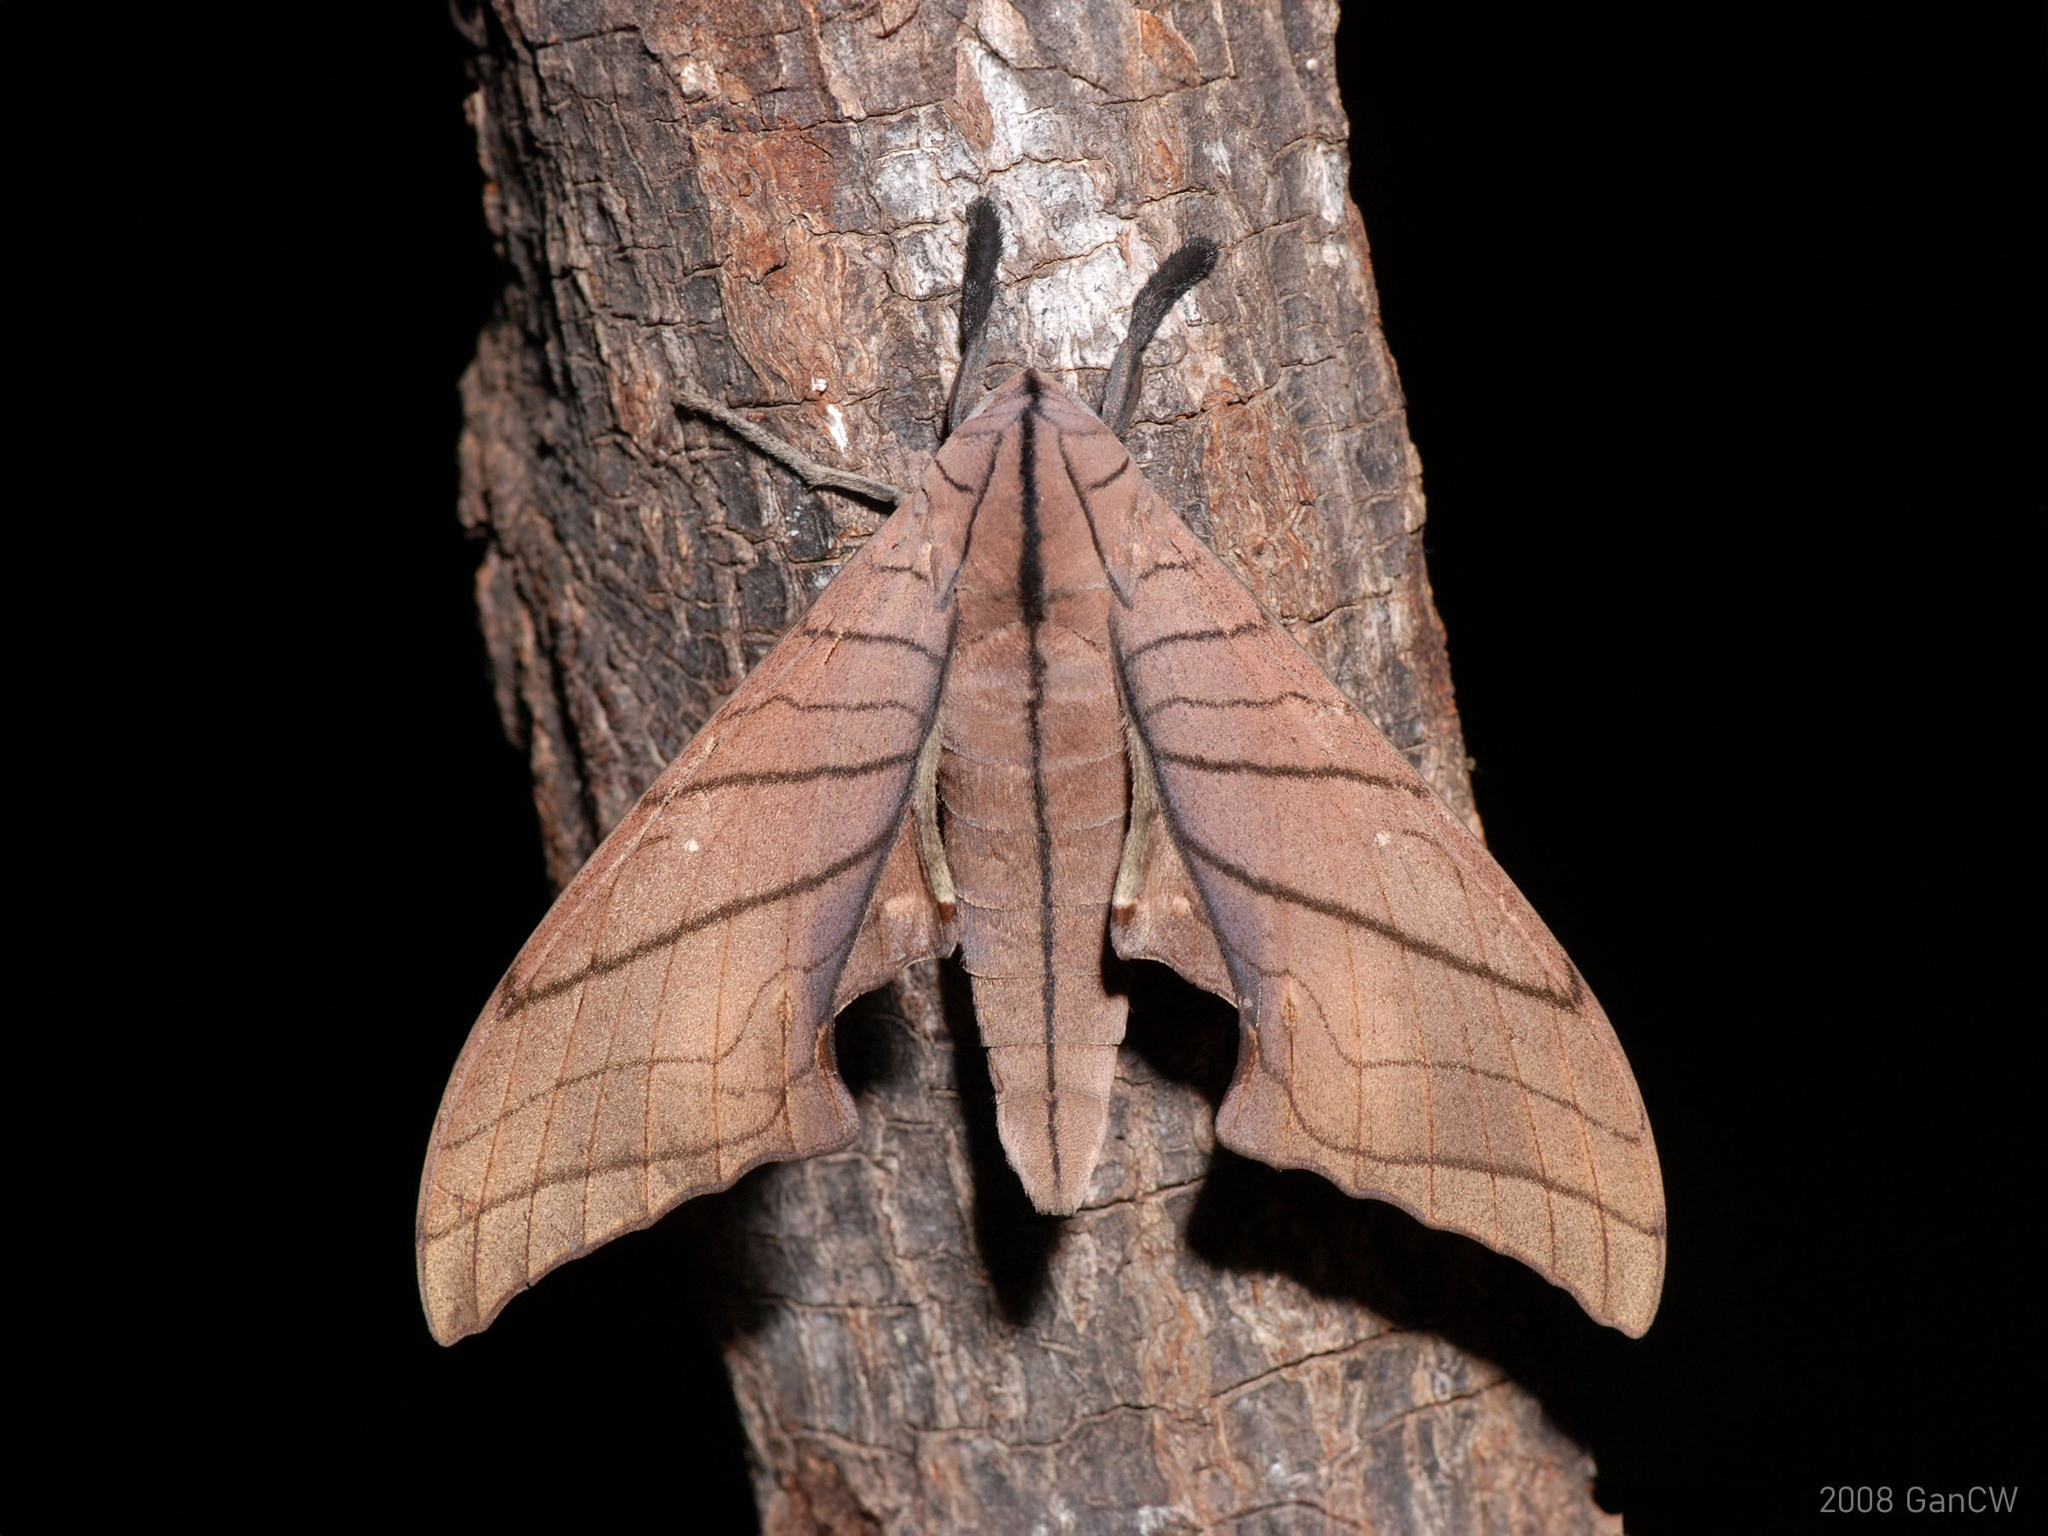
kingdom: Animalia
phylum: Arthropoda
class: Insecta
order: Lepidoptera
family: Sphingidae
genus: Marumba
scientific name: Marumba cristata
